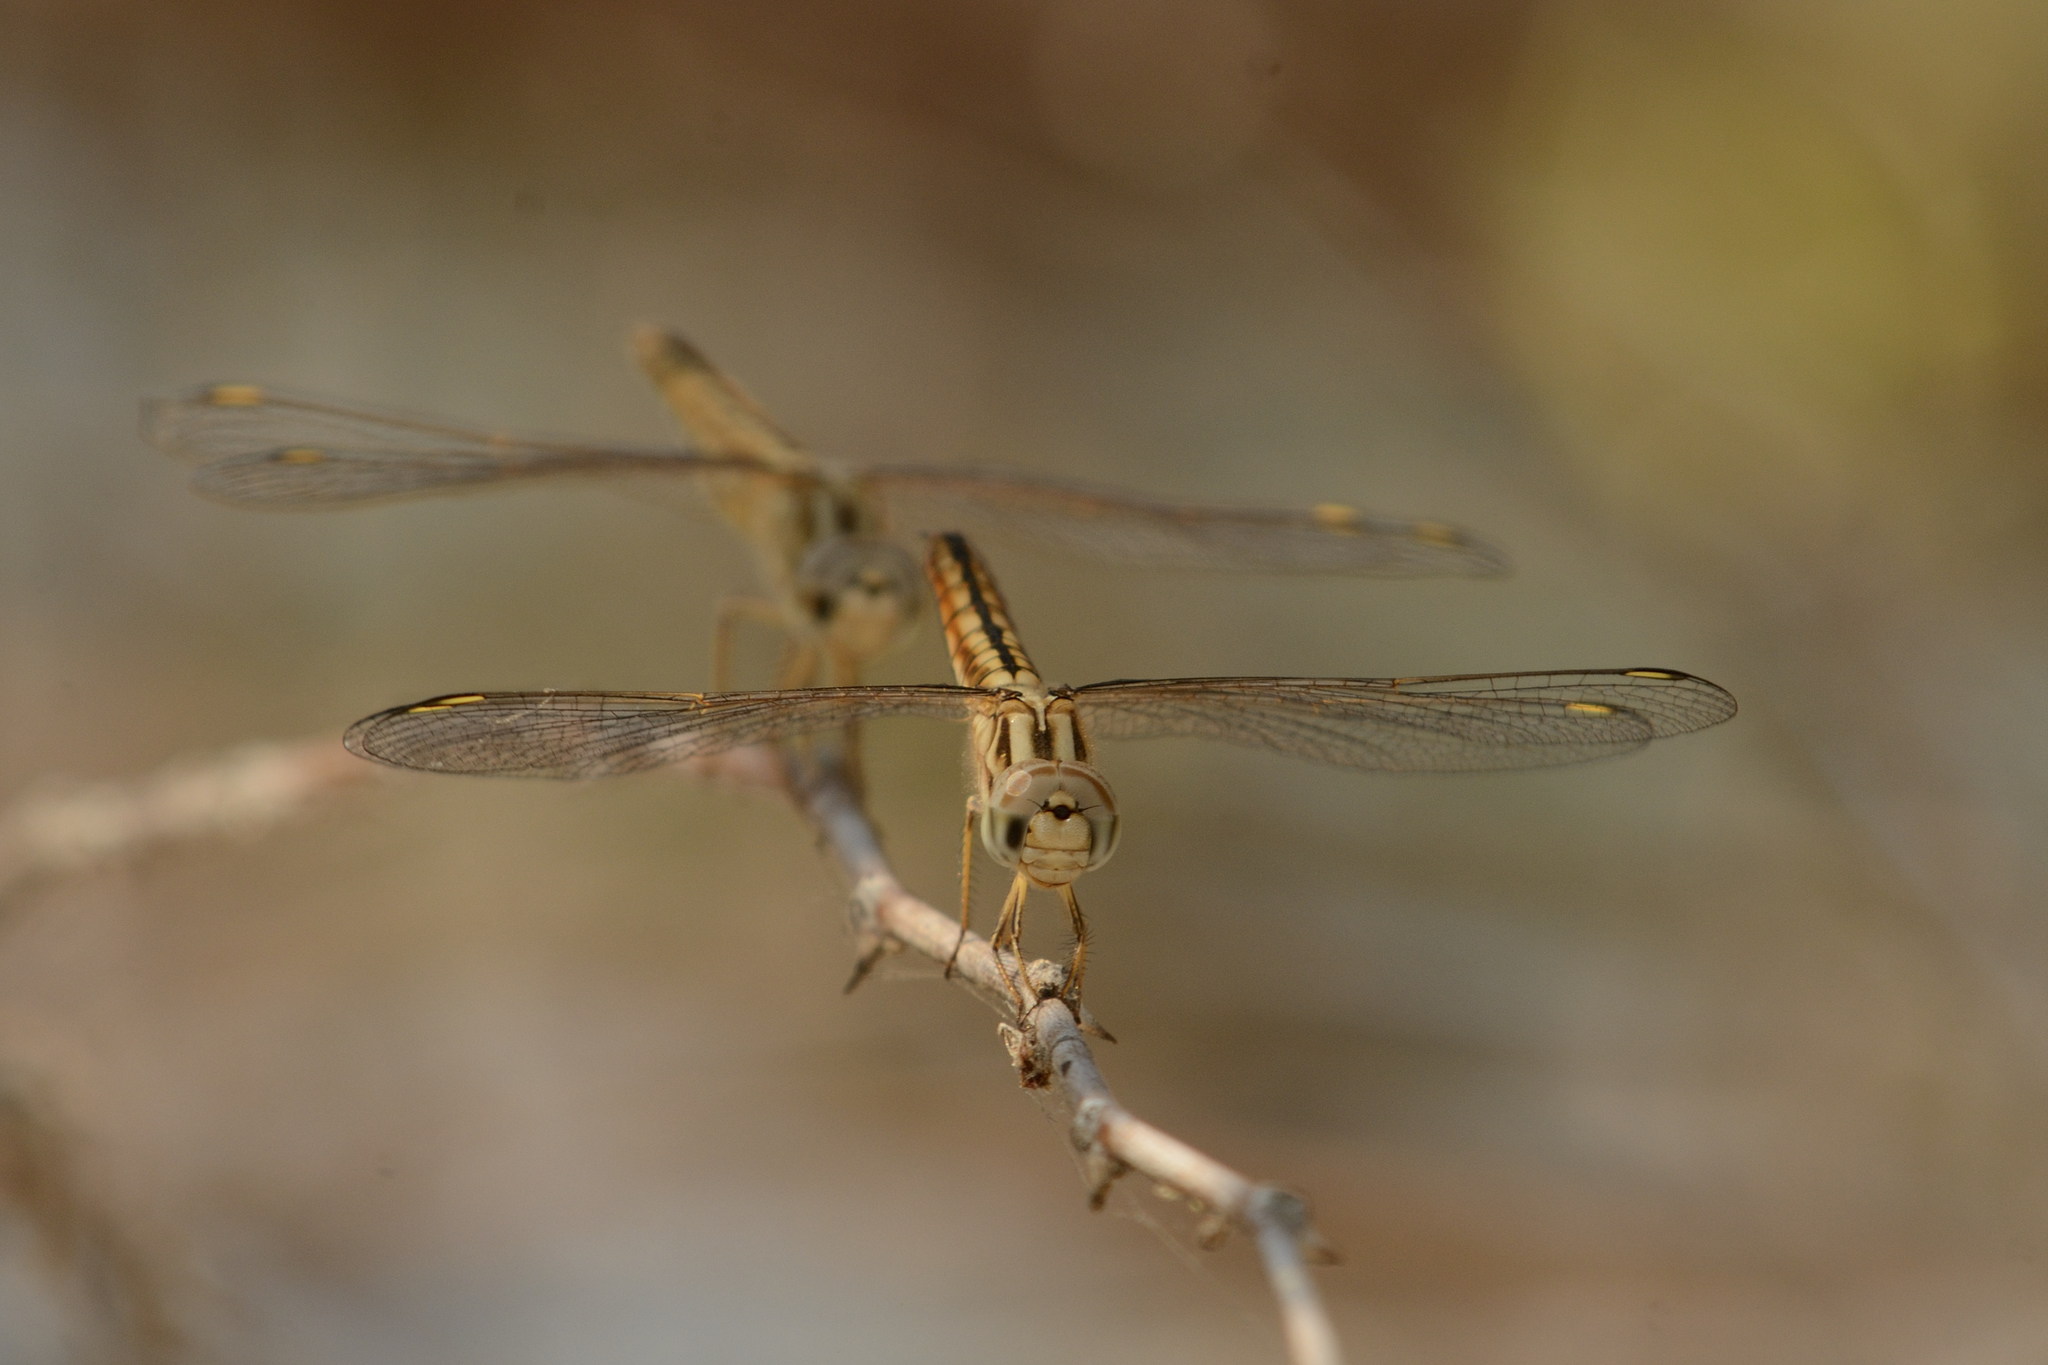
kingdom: Animalia
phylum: Arthropoda
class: Insecta
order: Odonata
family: Libellulidae
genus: Brachythemis
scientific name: Brachythemis lacustris
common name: Red groundling
